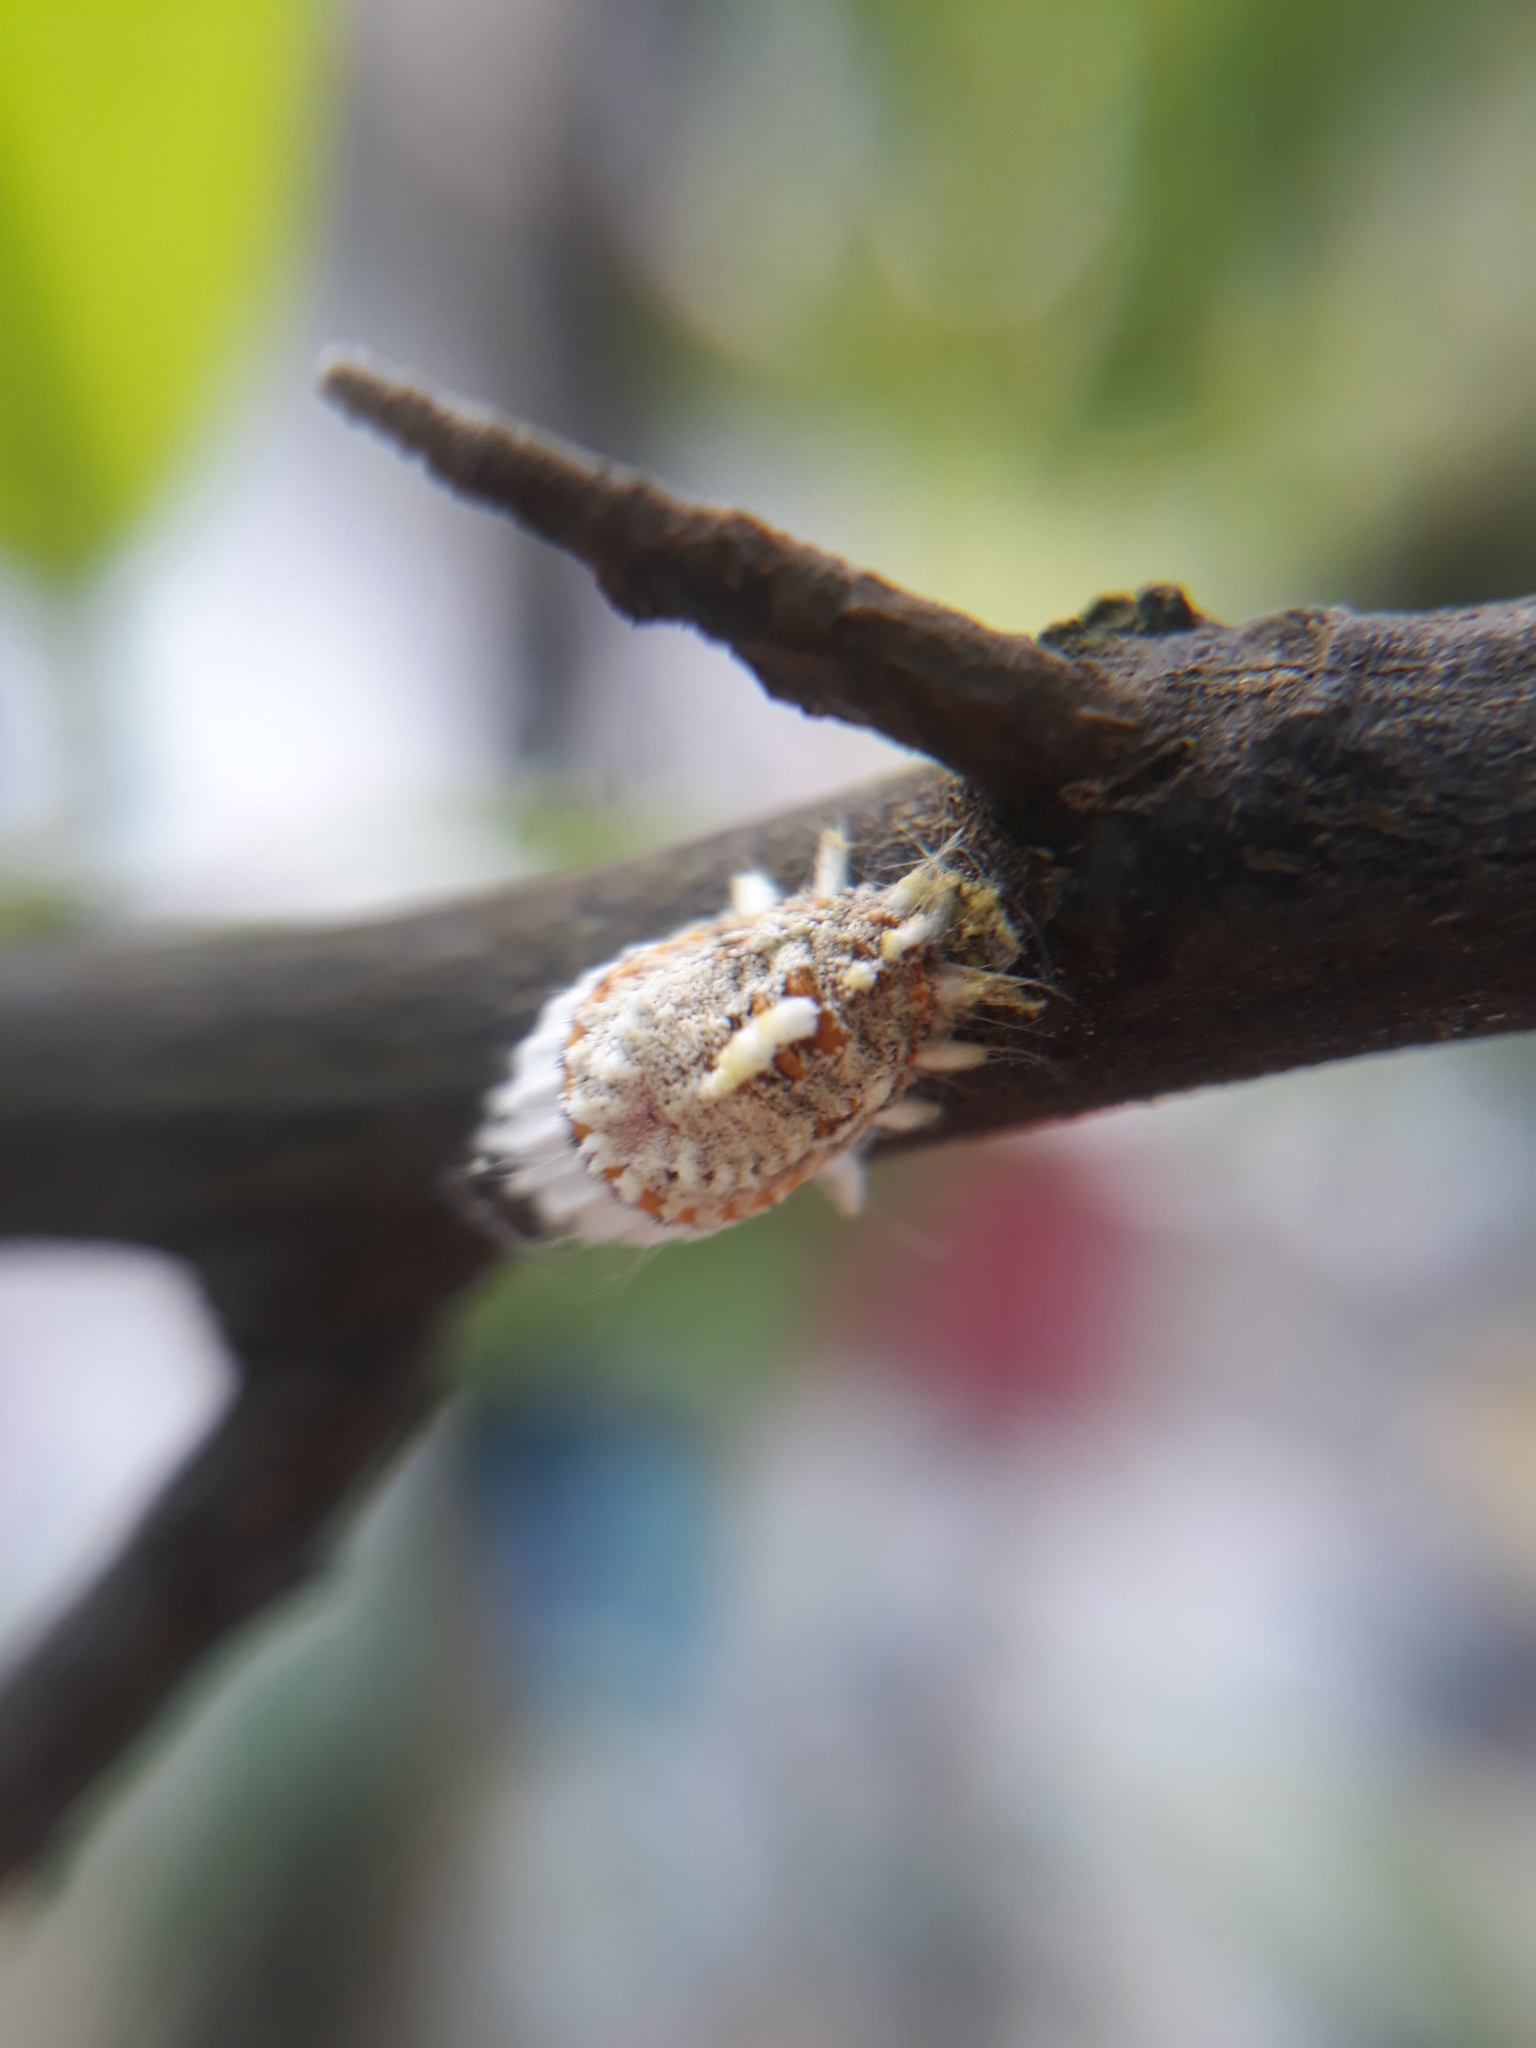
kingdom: Animalia
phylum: Arthropoda
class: Insecta
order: Hemiptera
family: Margarodidae
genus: Icerya
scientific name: Icerya purchasi
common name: Cottony cushion scale
